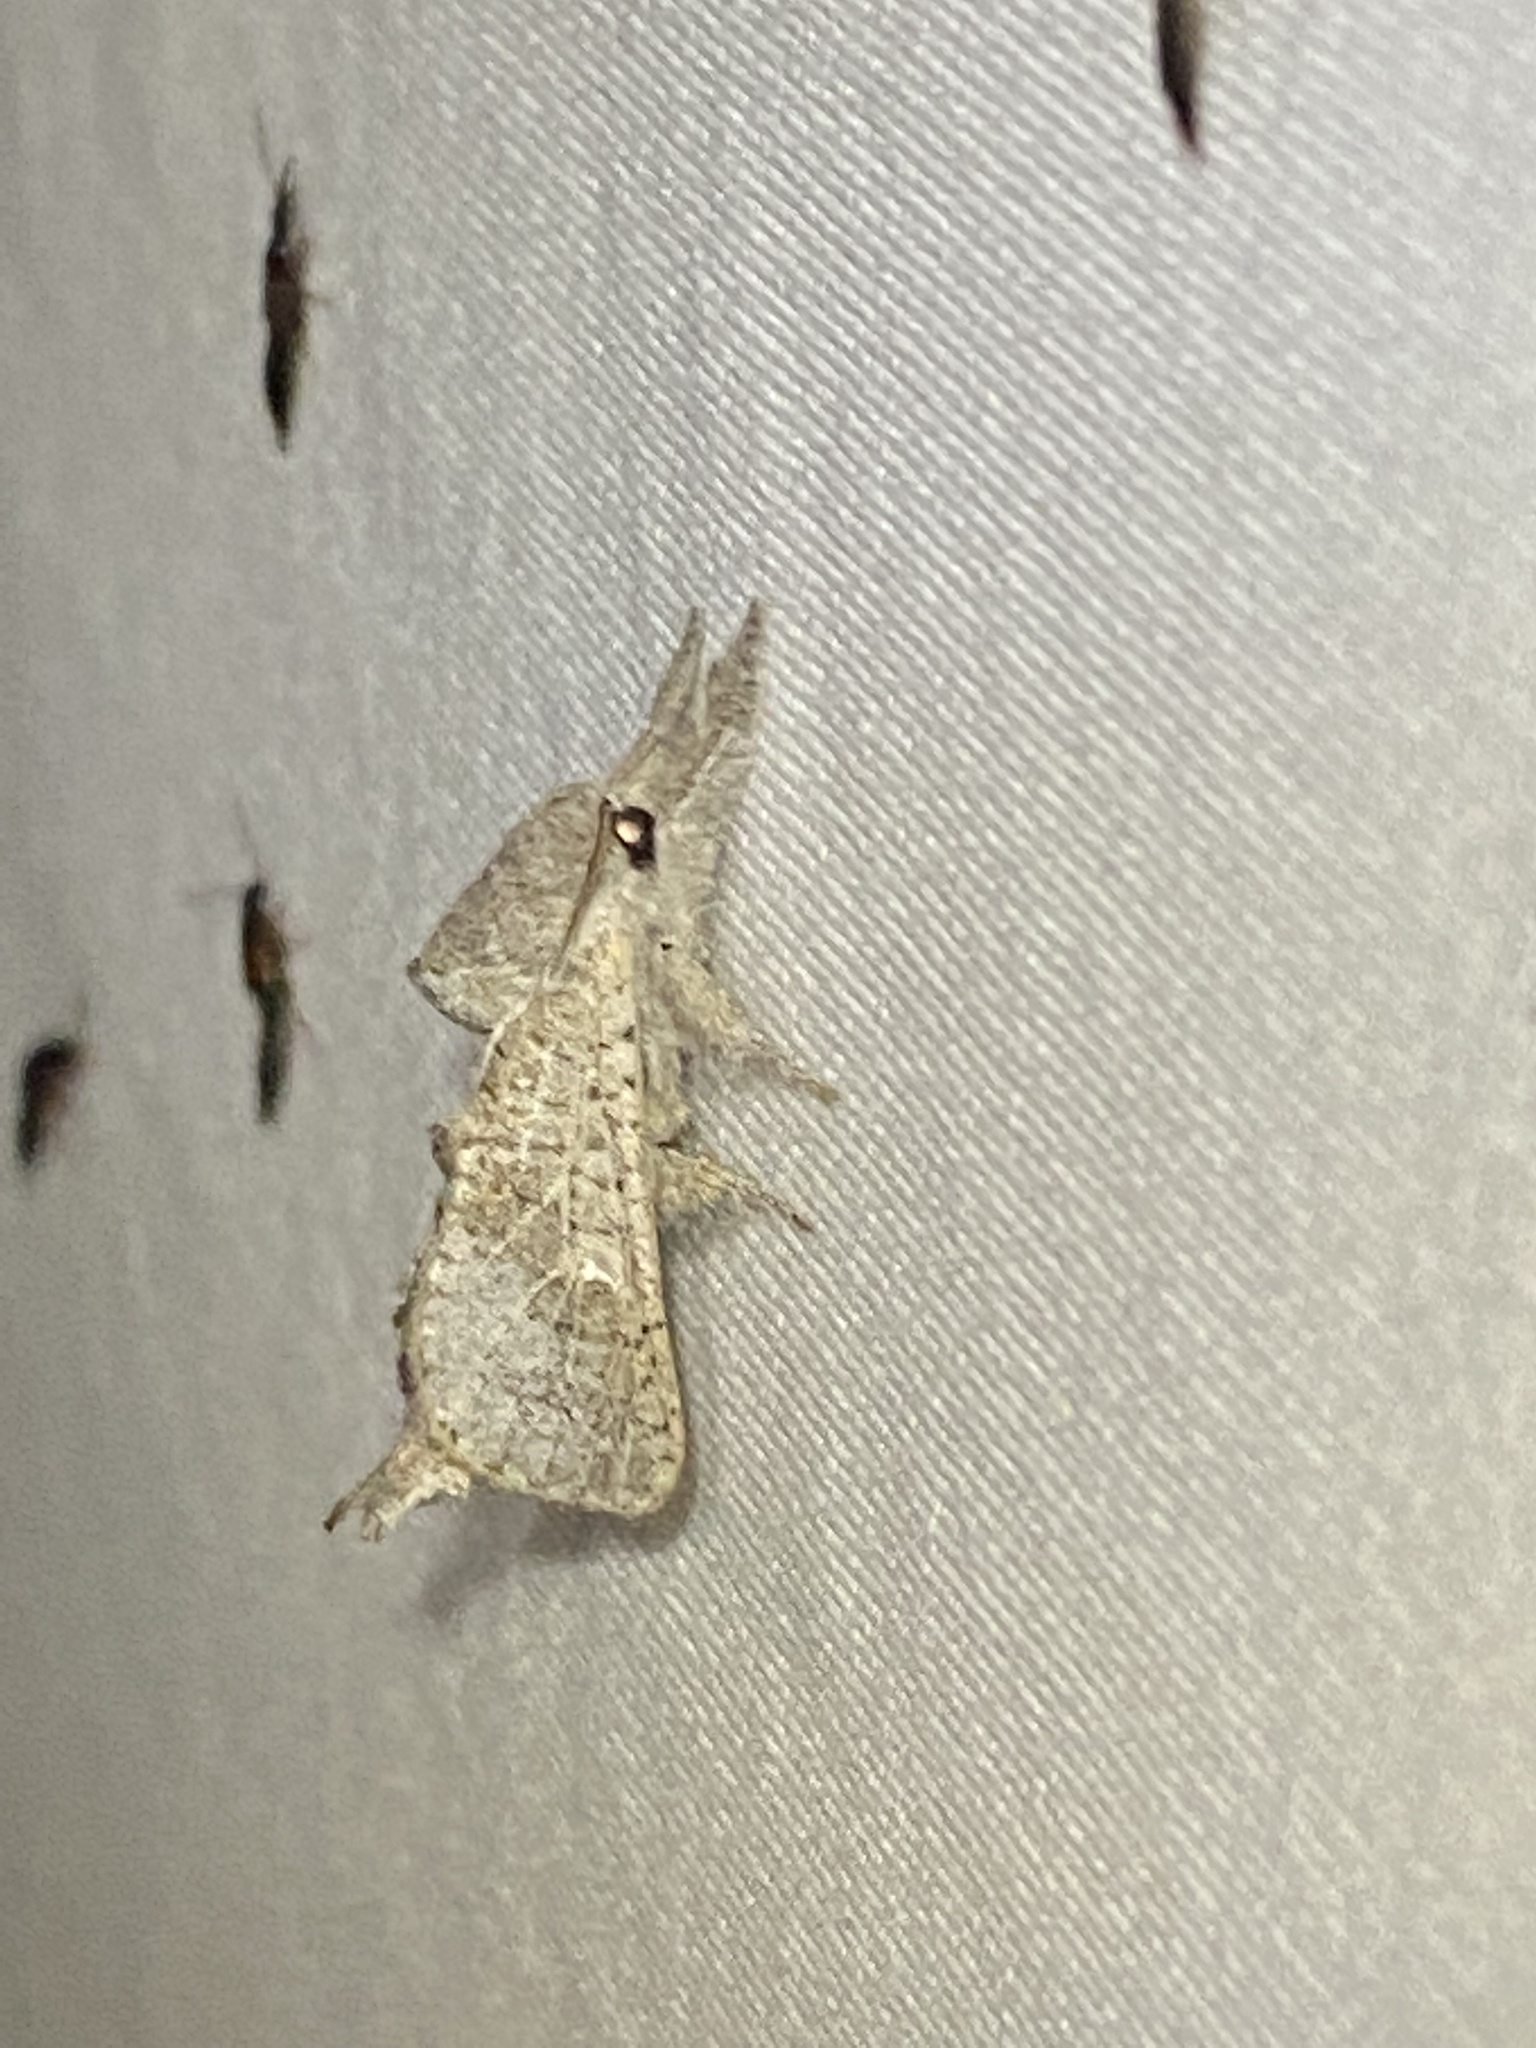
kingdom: Animalia
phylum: Arthropoda
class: Insecta
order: Lepidoptera
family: Cossidae
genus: Givira
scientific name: Givira anna
